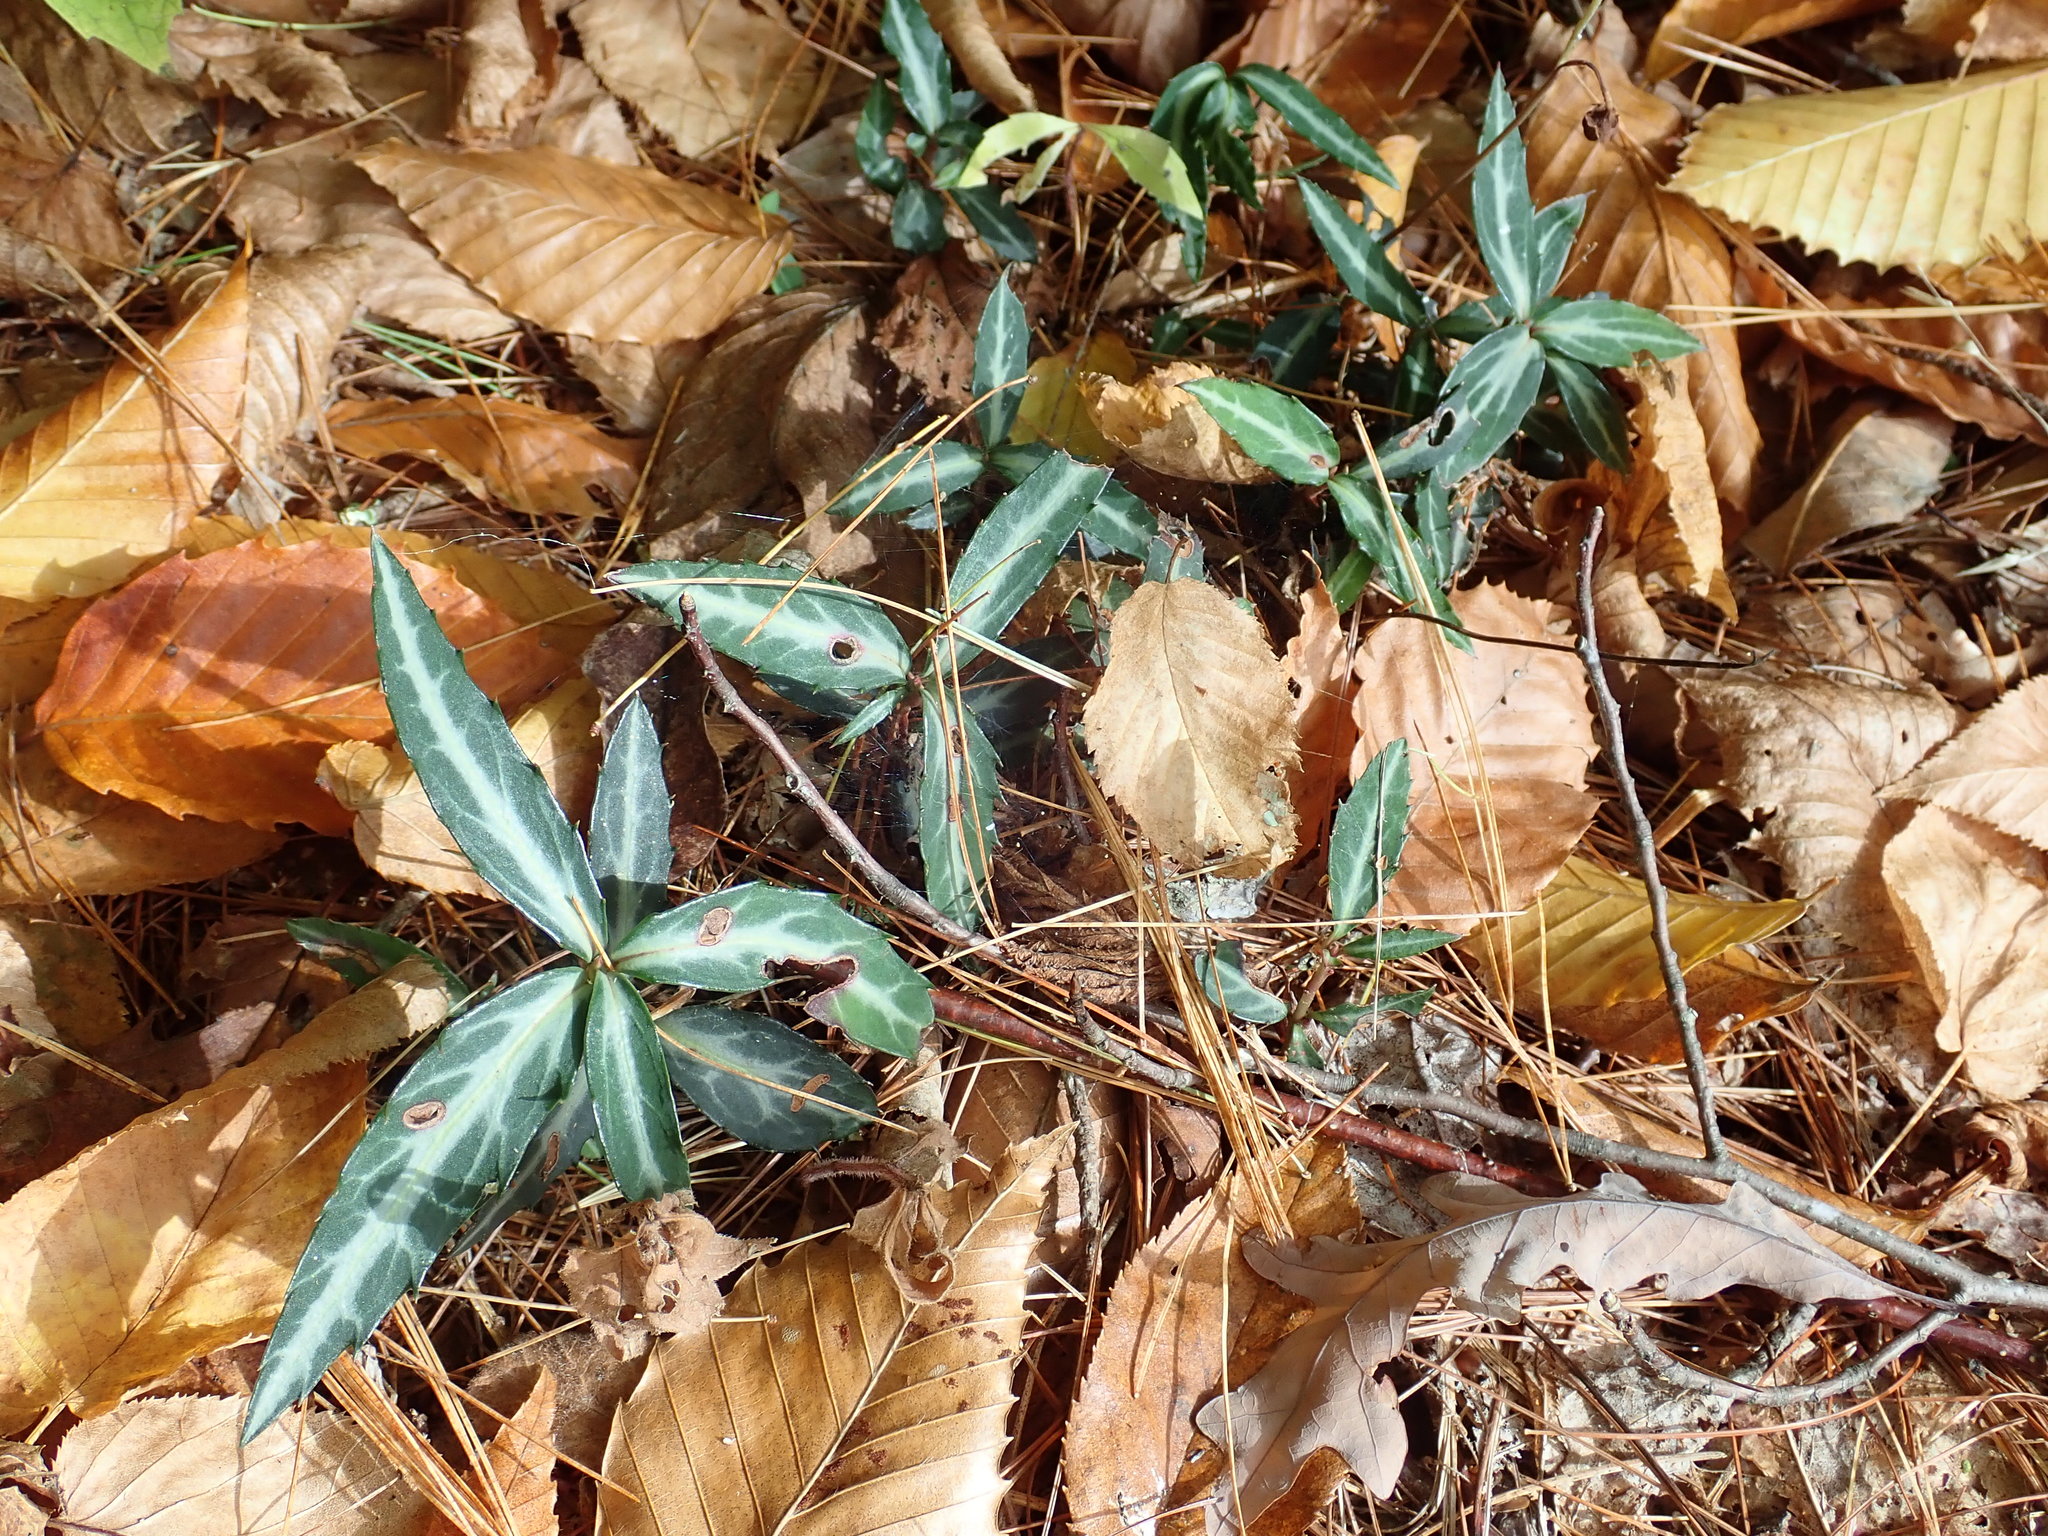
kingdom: Plantae
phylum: Tracheophyta
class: Magnoliopsida
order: Ericales
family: Ericaceae
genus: Chimaphila
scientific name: Chimaphila maculata
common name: Spotted pipsissewa
